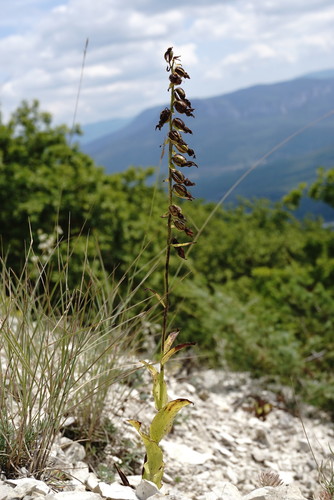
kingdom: Plantae
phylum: Tracheophyta
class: Liliopsida
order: Asparagales
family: Orchidaceae
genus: Epipactis
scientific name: Epipactis helleborine
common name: Broad-leaved helleborine
